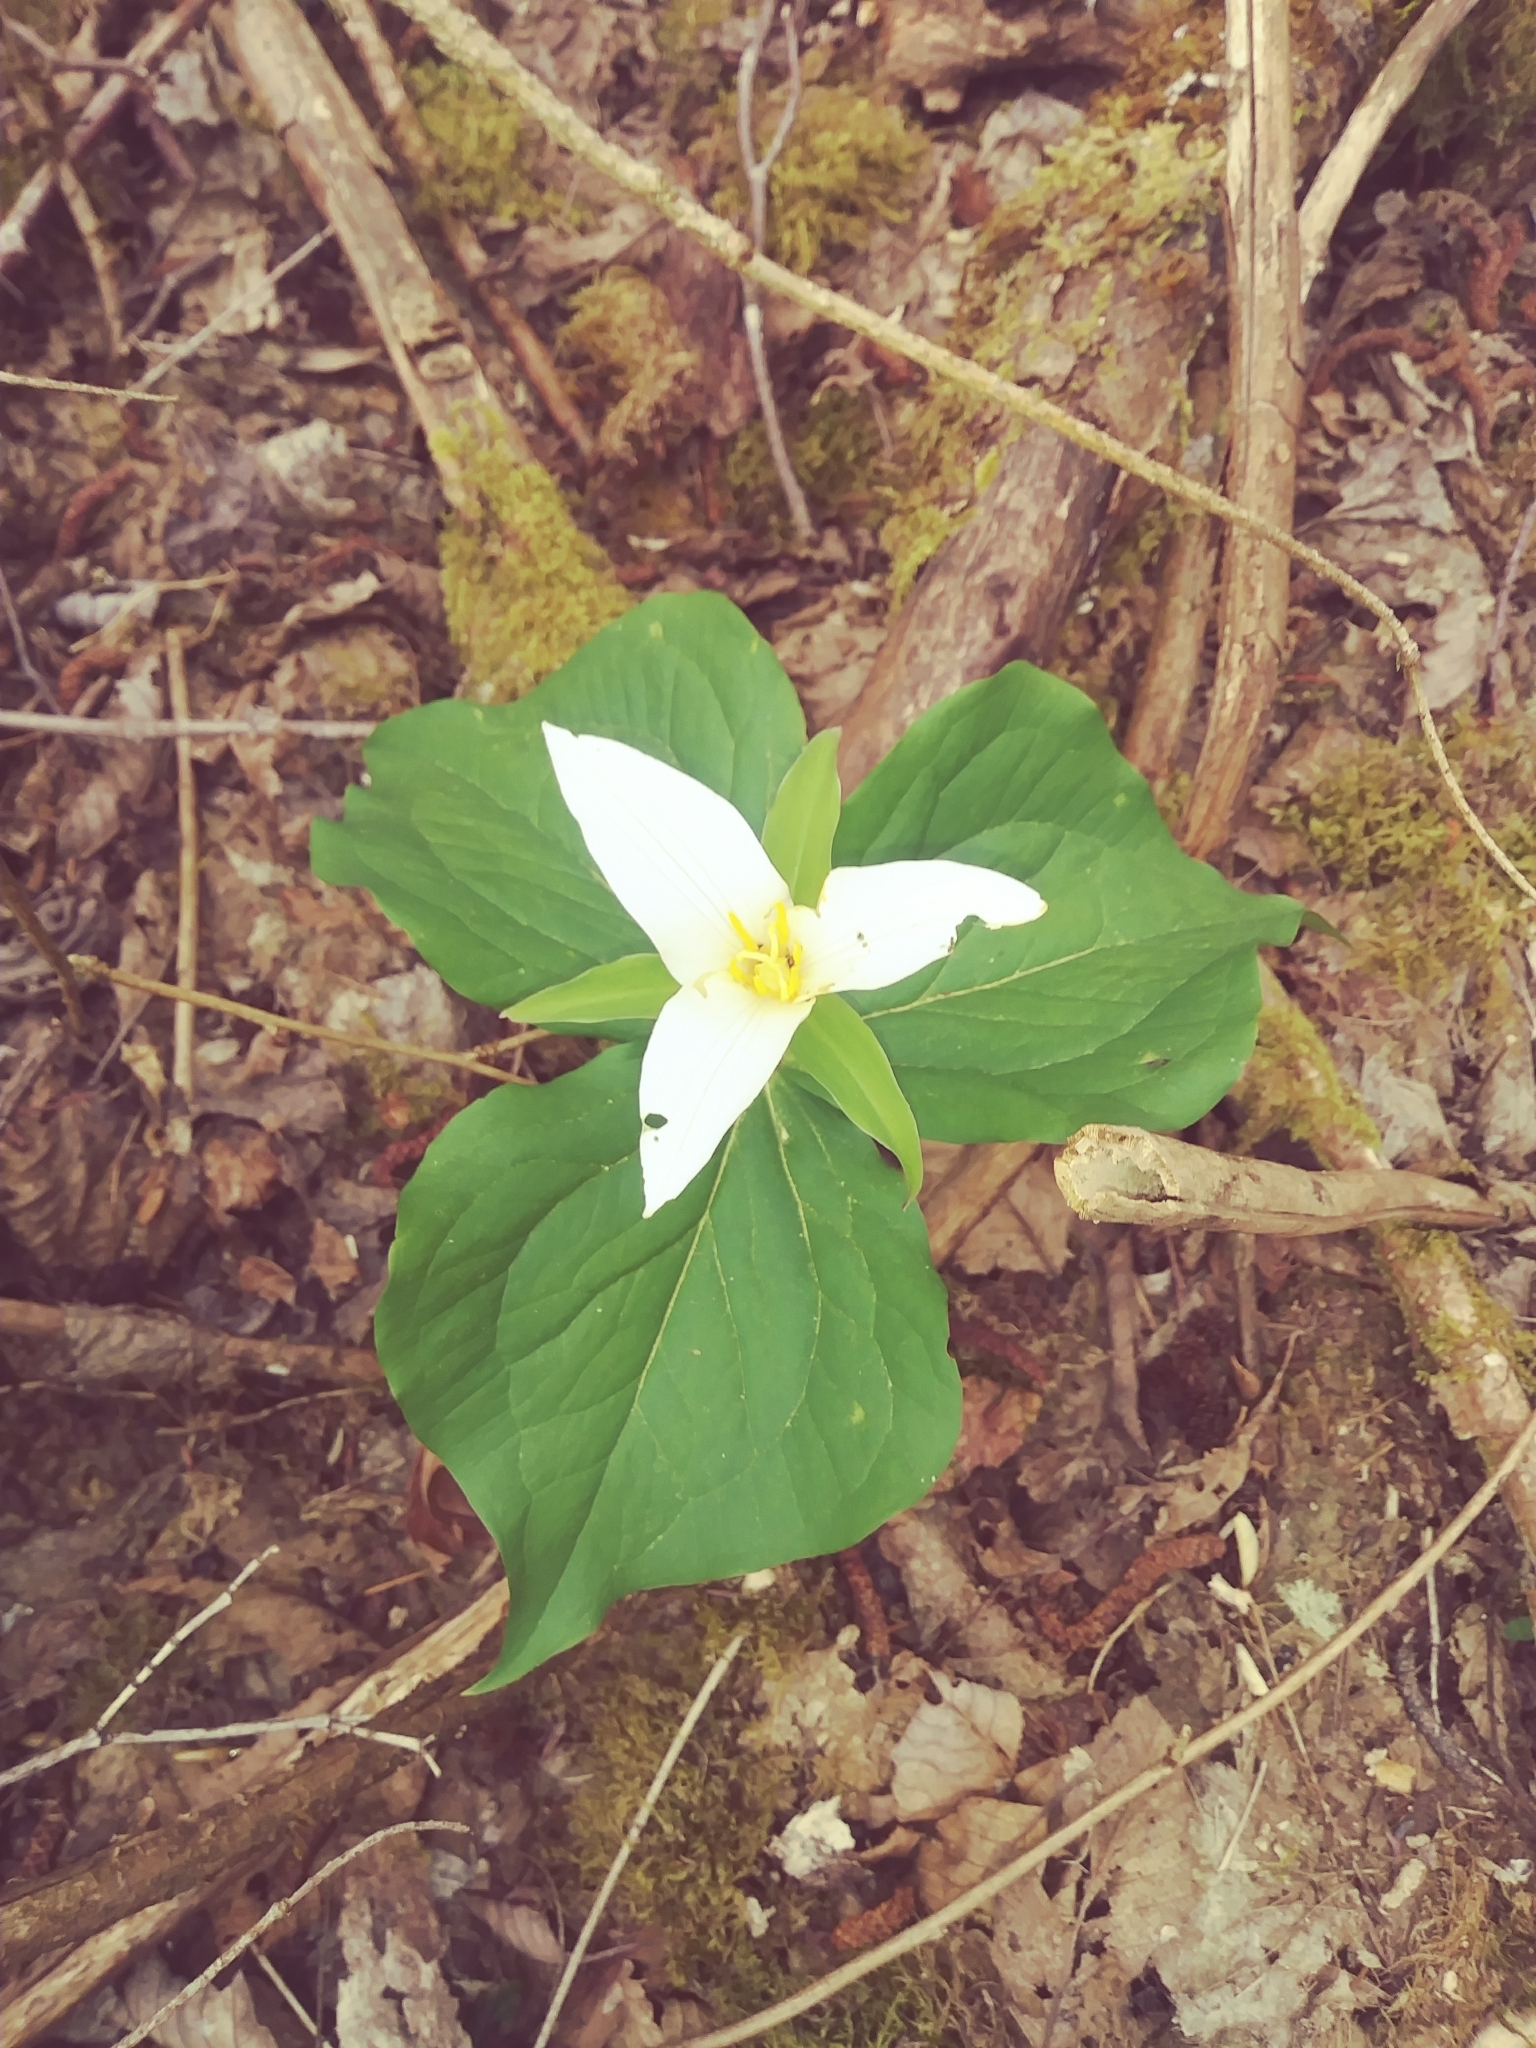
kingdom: Plantae
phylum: Tracheophyta
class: Liliopsida
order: Liliales
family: Melanthiaceae
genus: Trillium
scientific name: Trillium ovatum
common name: Pacific trillium
